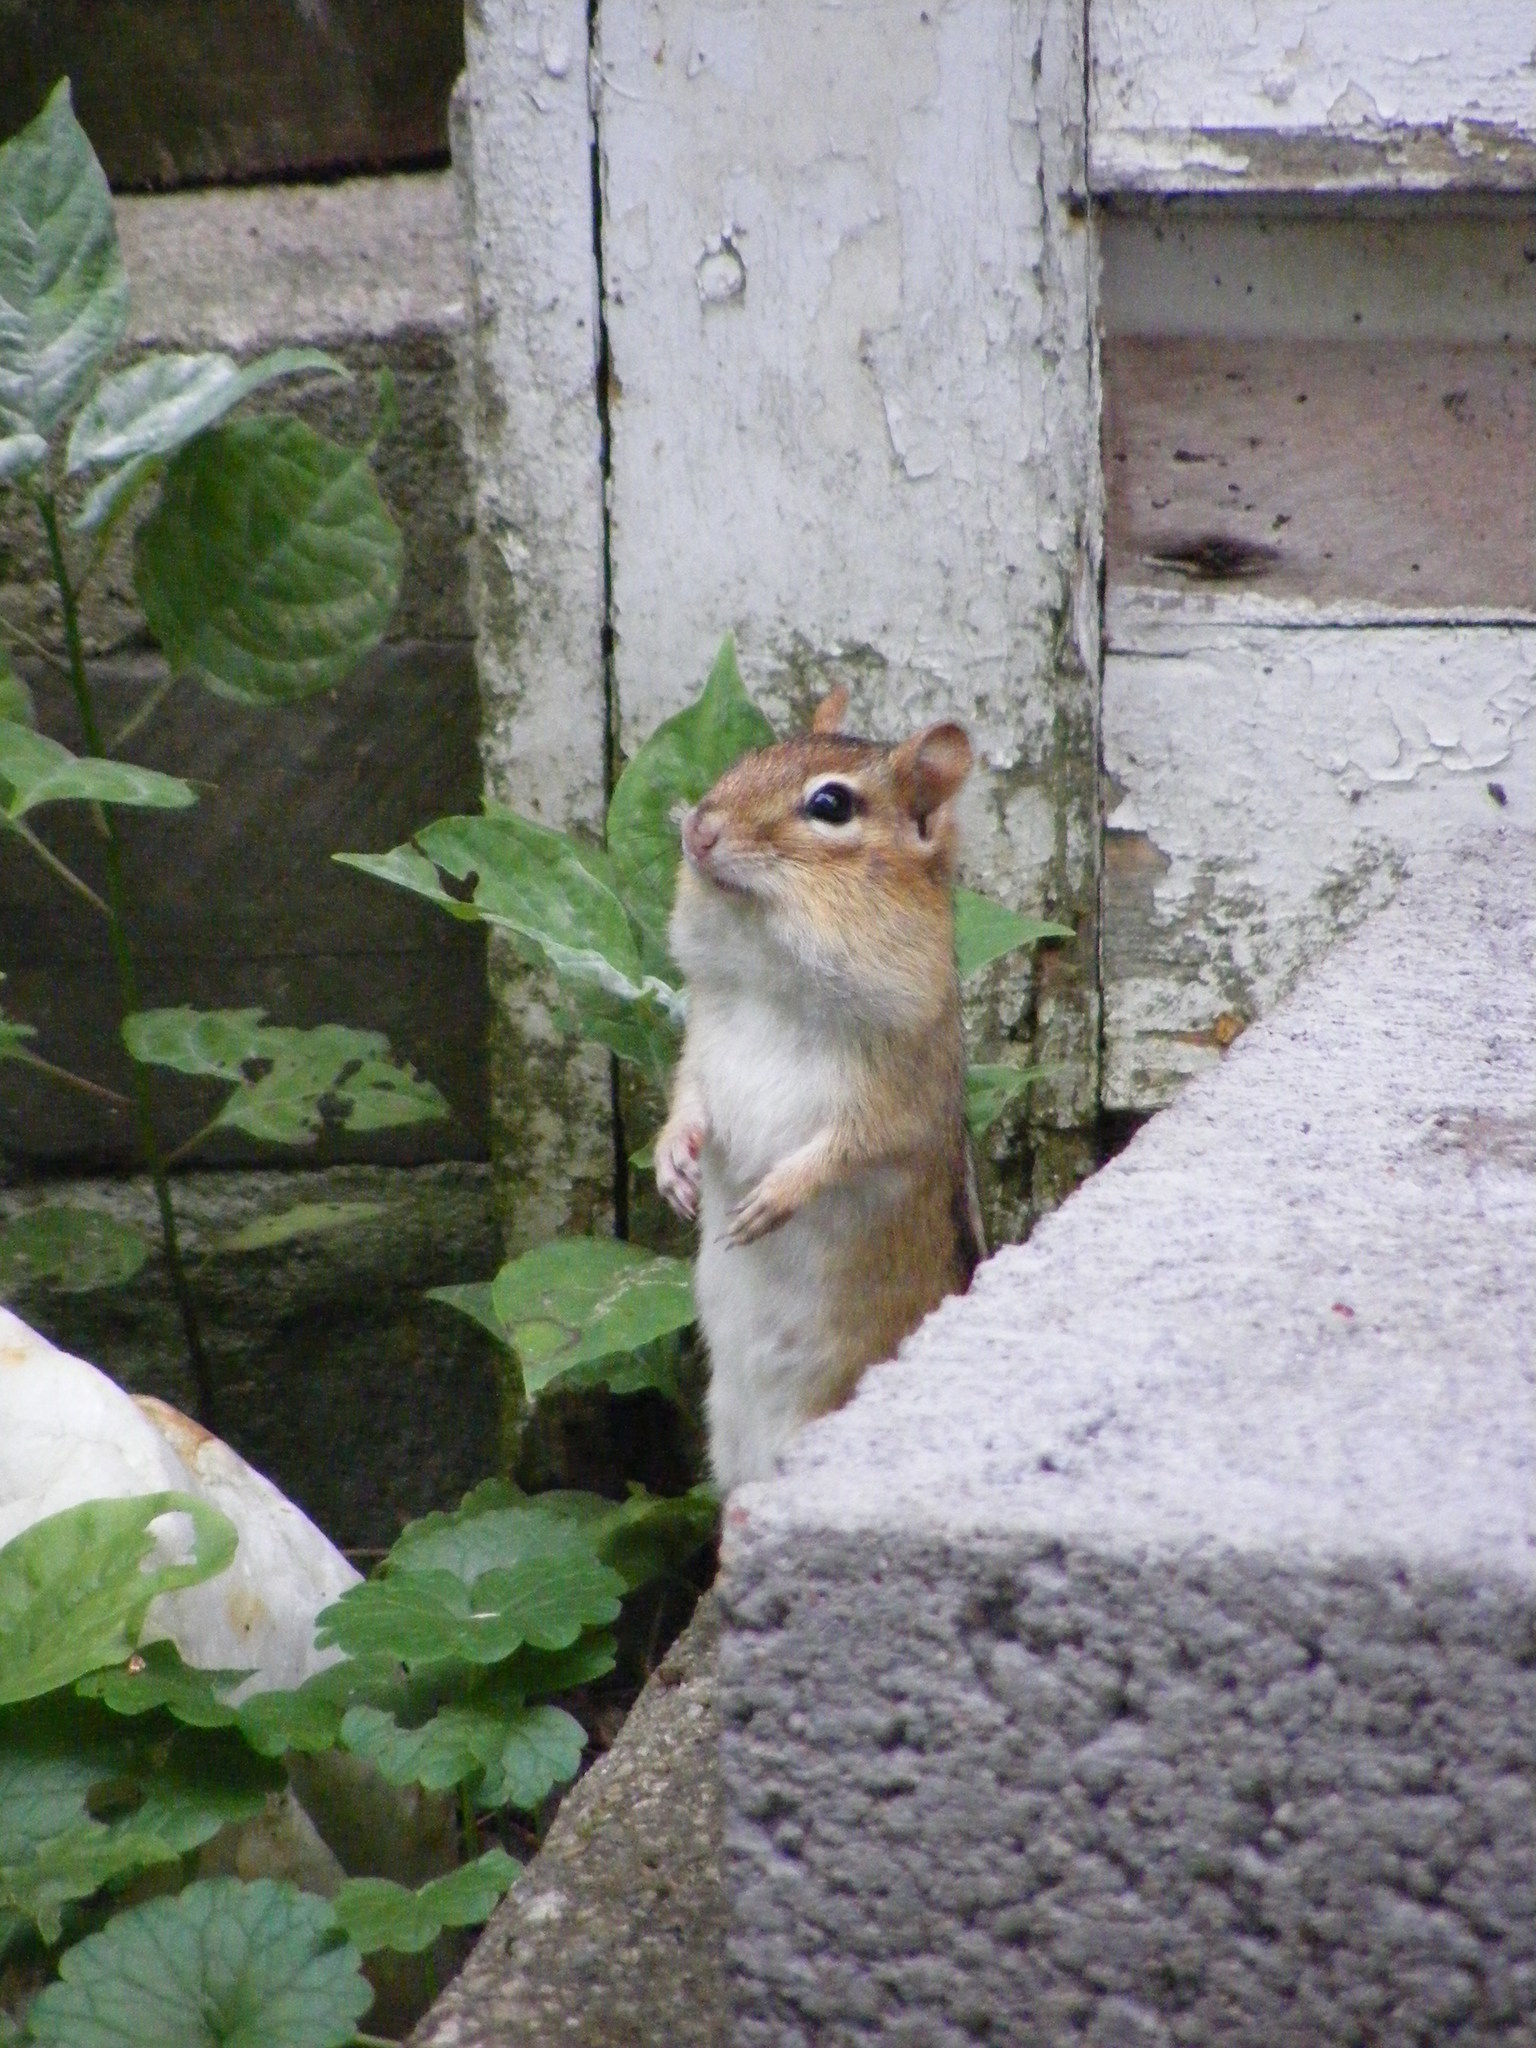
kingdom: Animalia
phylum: Chordata
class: Mammalia
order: Rodentia
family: Sciuridae
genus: Tamias
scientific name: Tamias striatus
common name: Eastern chipmunk
